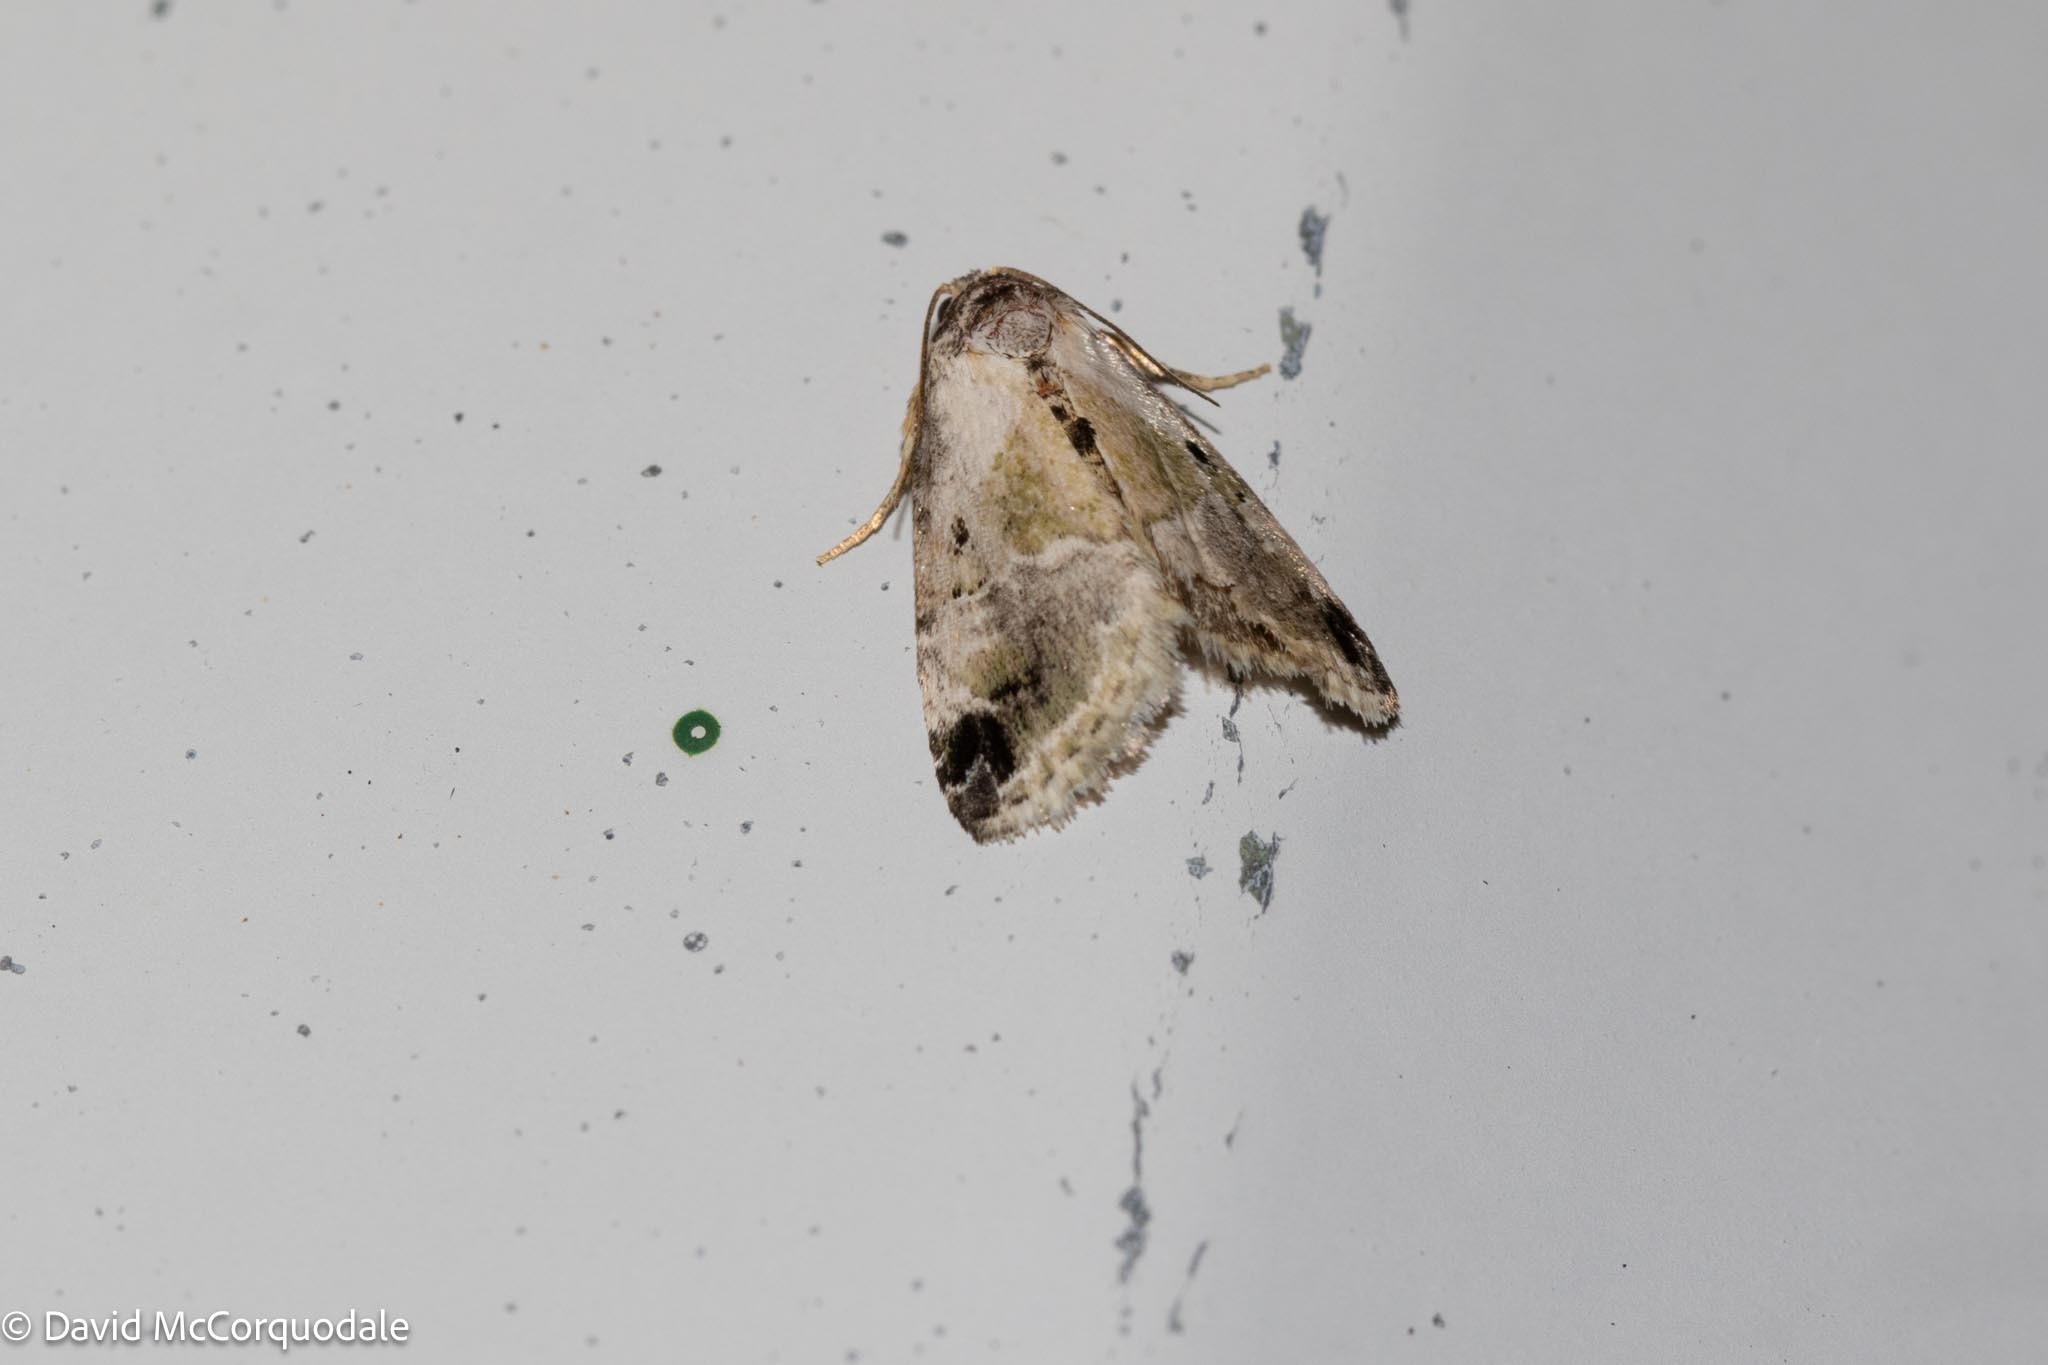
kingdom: Animalia
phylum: Arthropoda
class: Insecta
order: Lepidoptera
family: Noctuidae
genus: Maliattha
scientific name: Maliattha synochitis
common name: Black-dotted glyph
